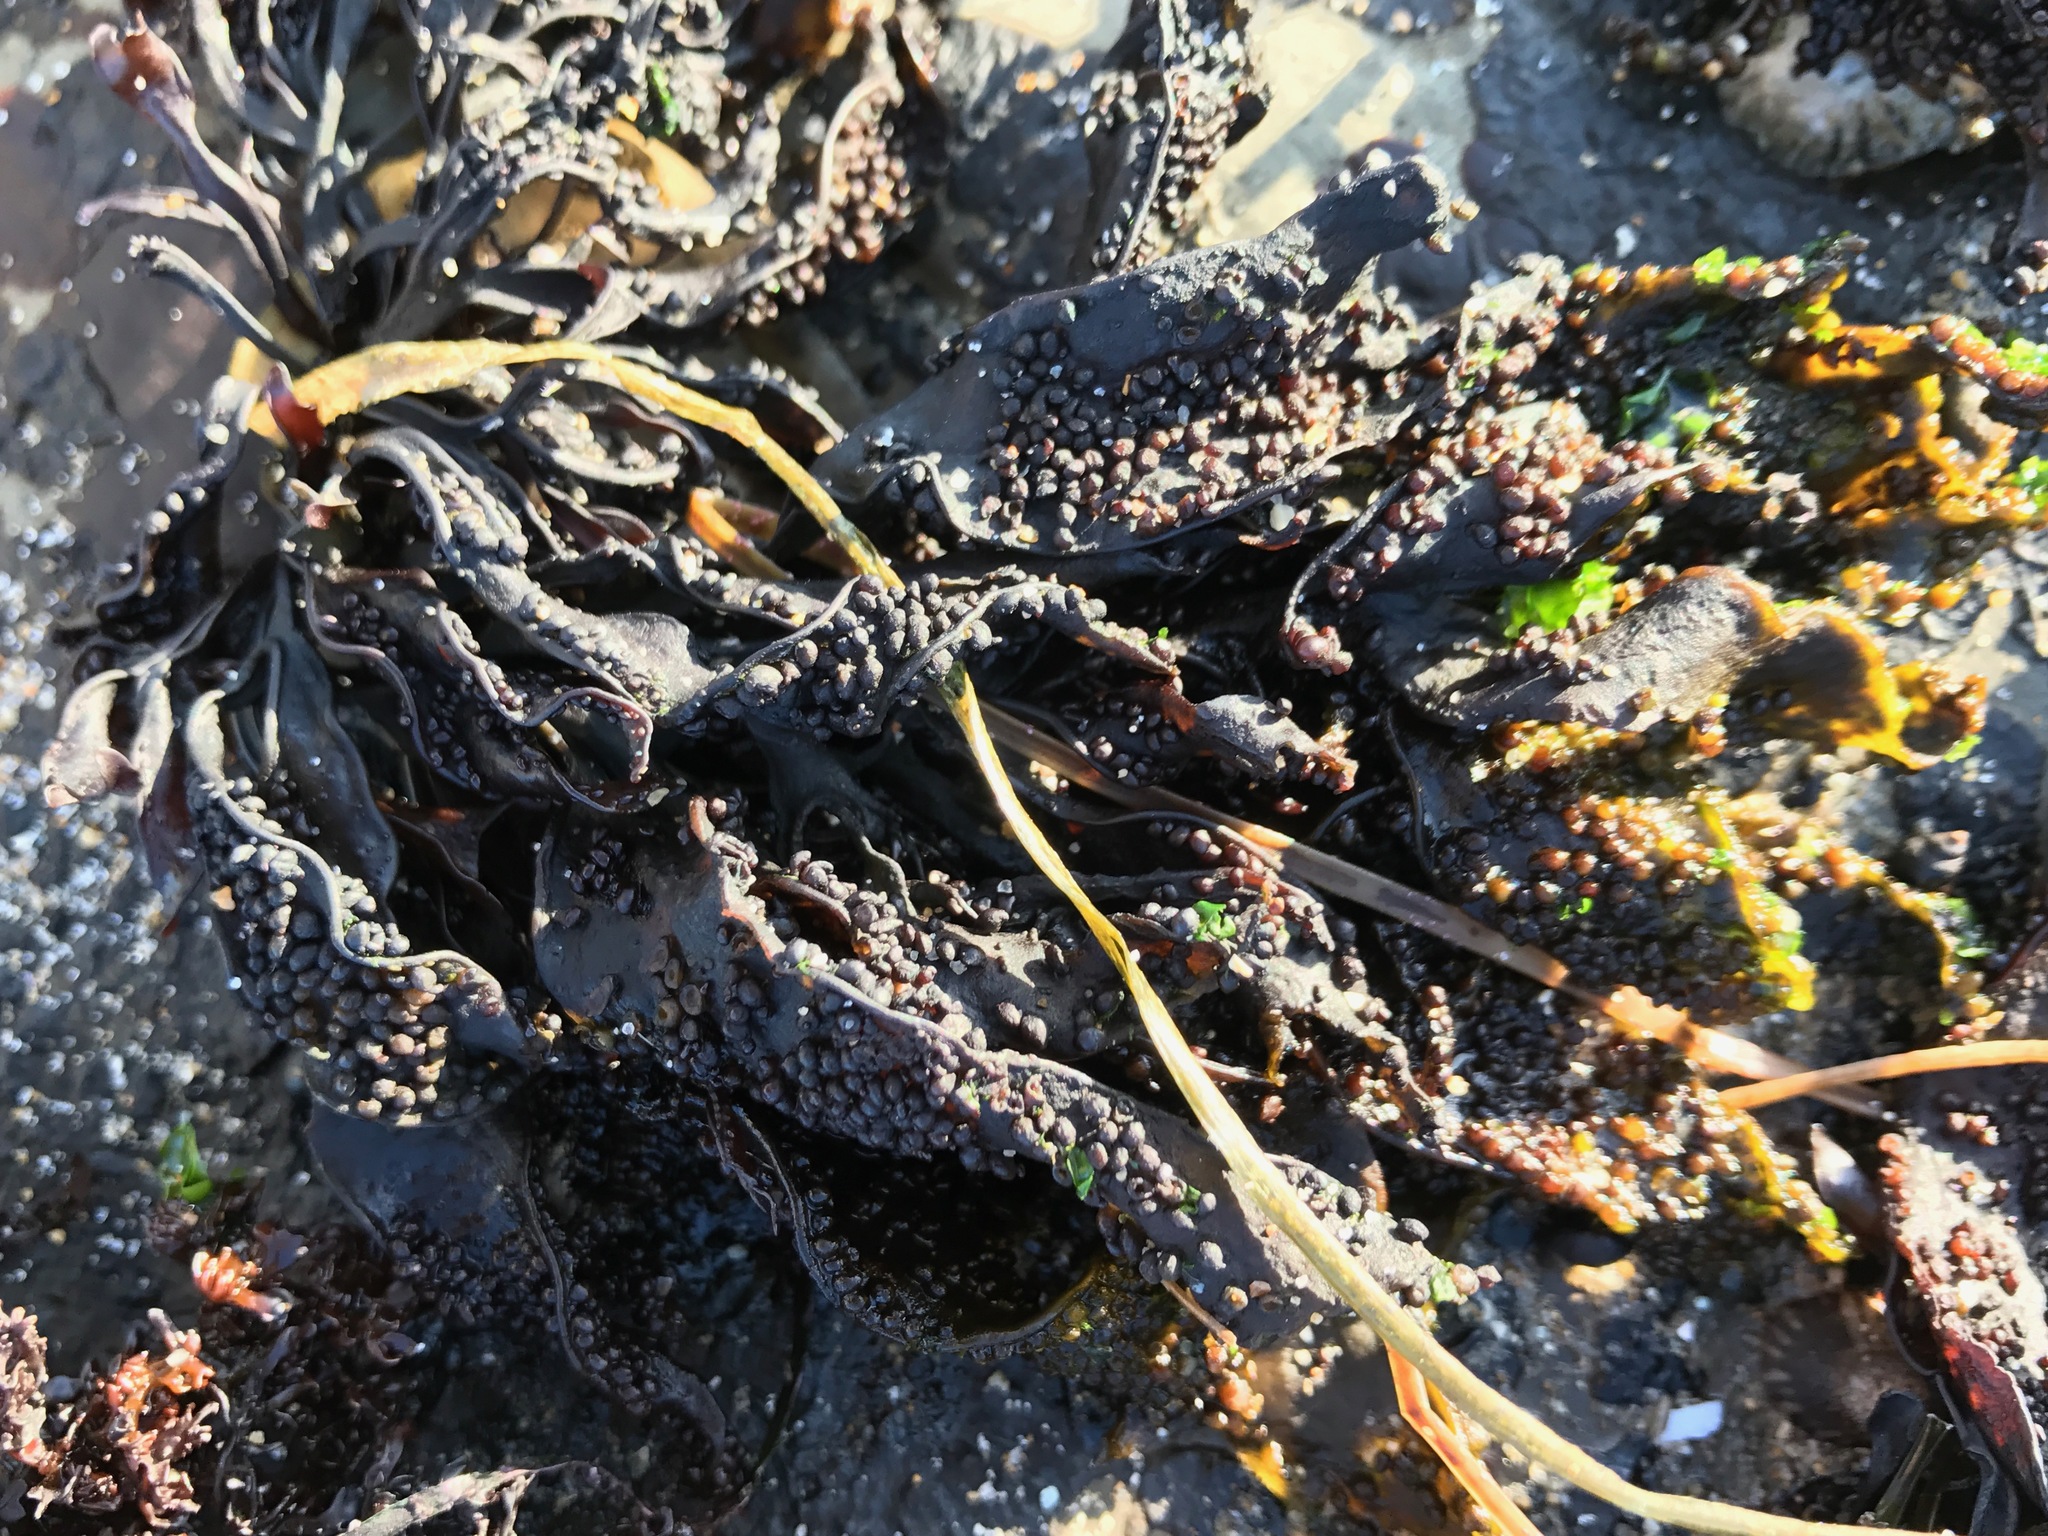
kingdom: Plantae
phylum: Rhodophyta
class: Florideophyceae
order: Gigartinales
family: Phyllophoraceae
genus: Mastocarpus
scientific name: Mastocarpus papillatus
